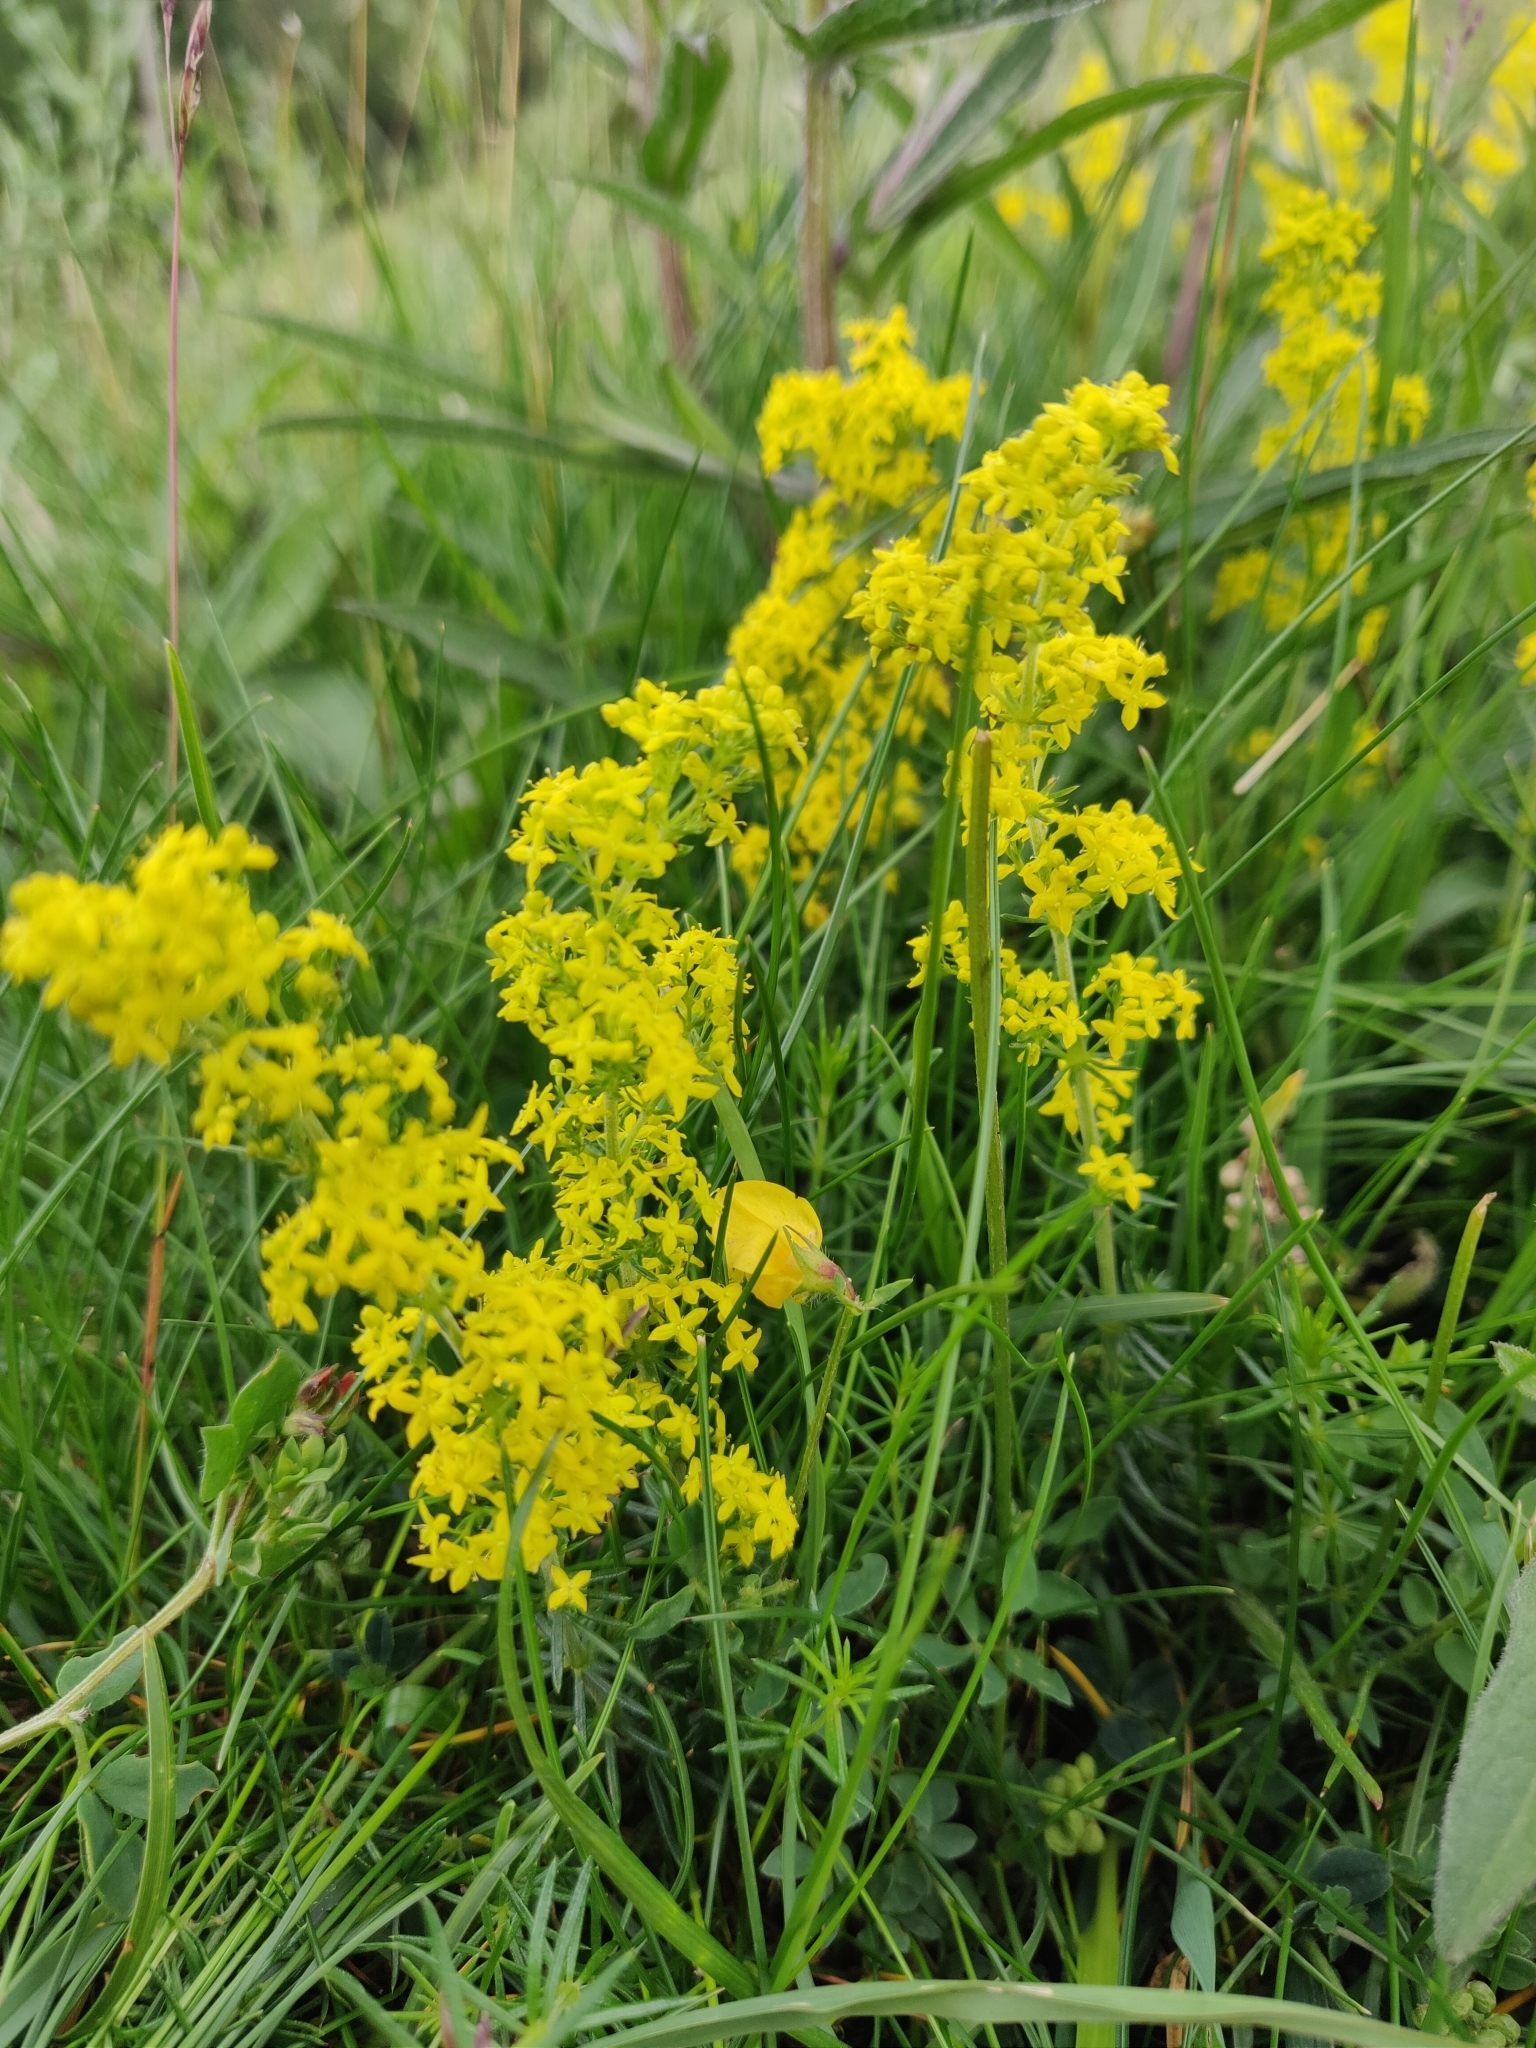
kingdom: Plantae
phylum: Tracheophyta
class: Magnoliopsida
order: Gentianales
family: Rubiaceae
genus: Galium
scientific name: Galium verum
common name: Lady's bedstraw
